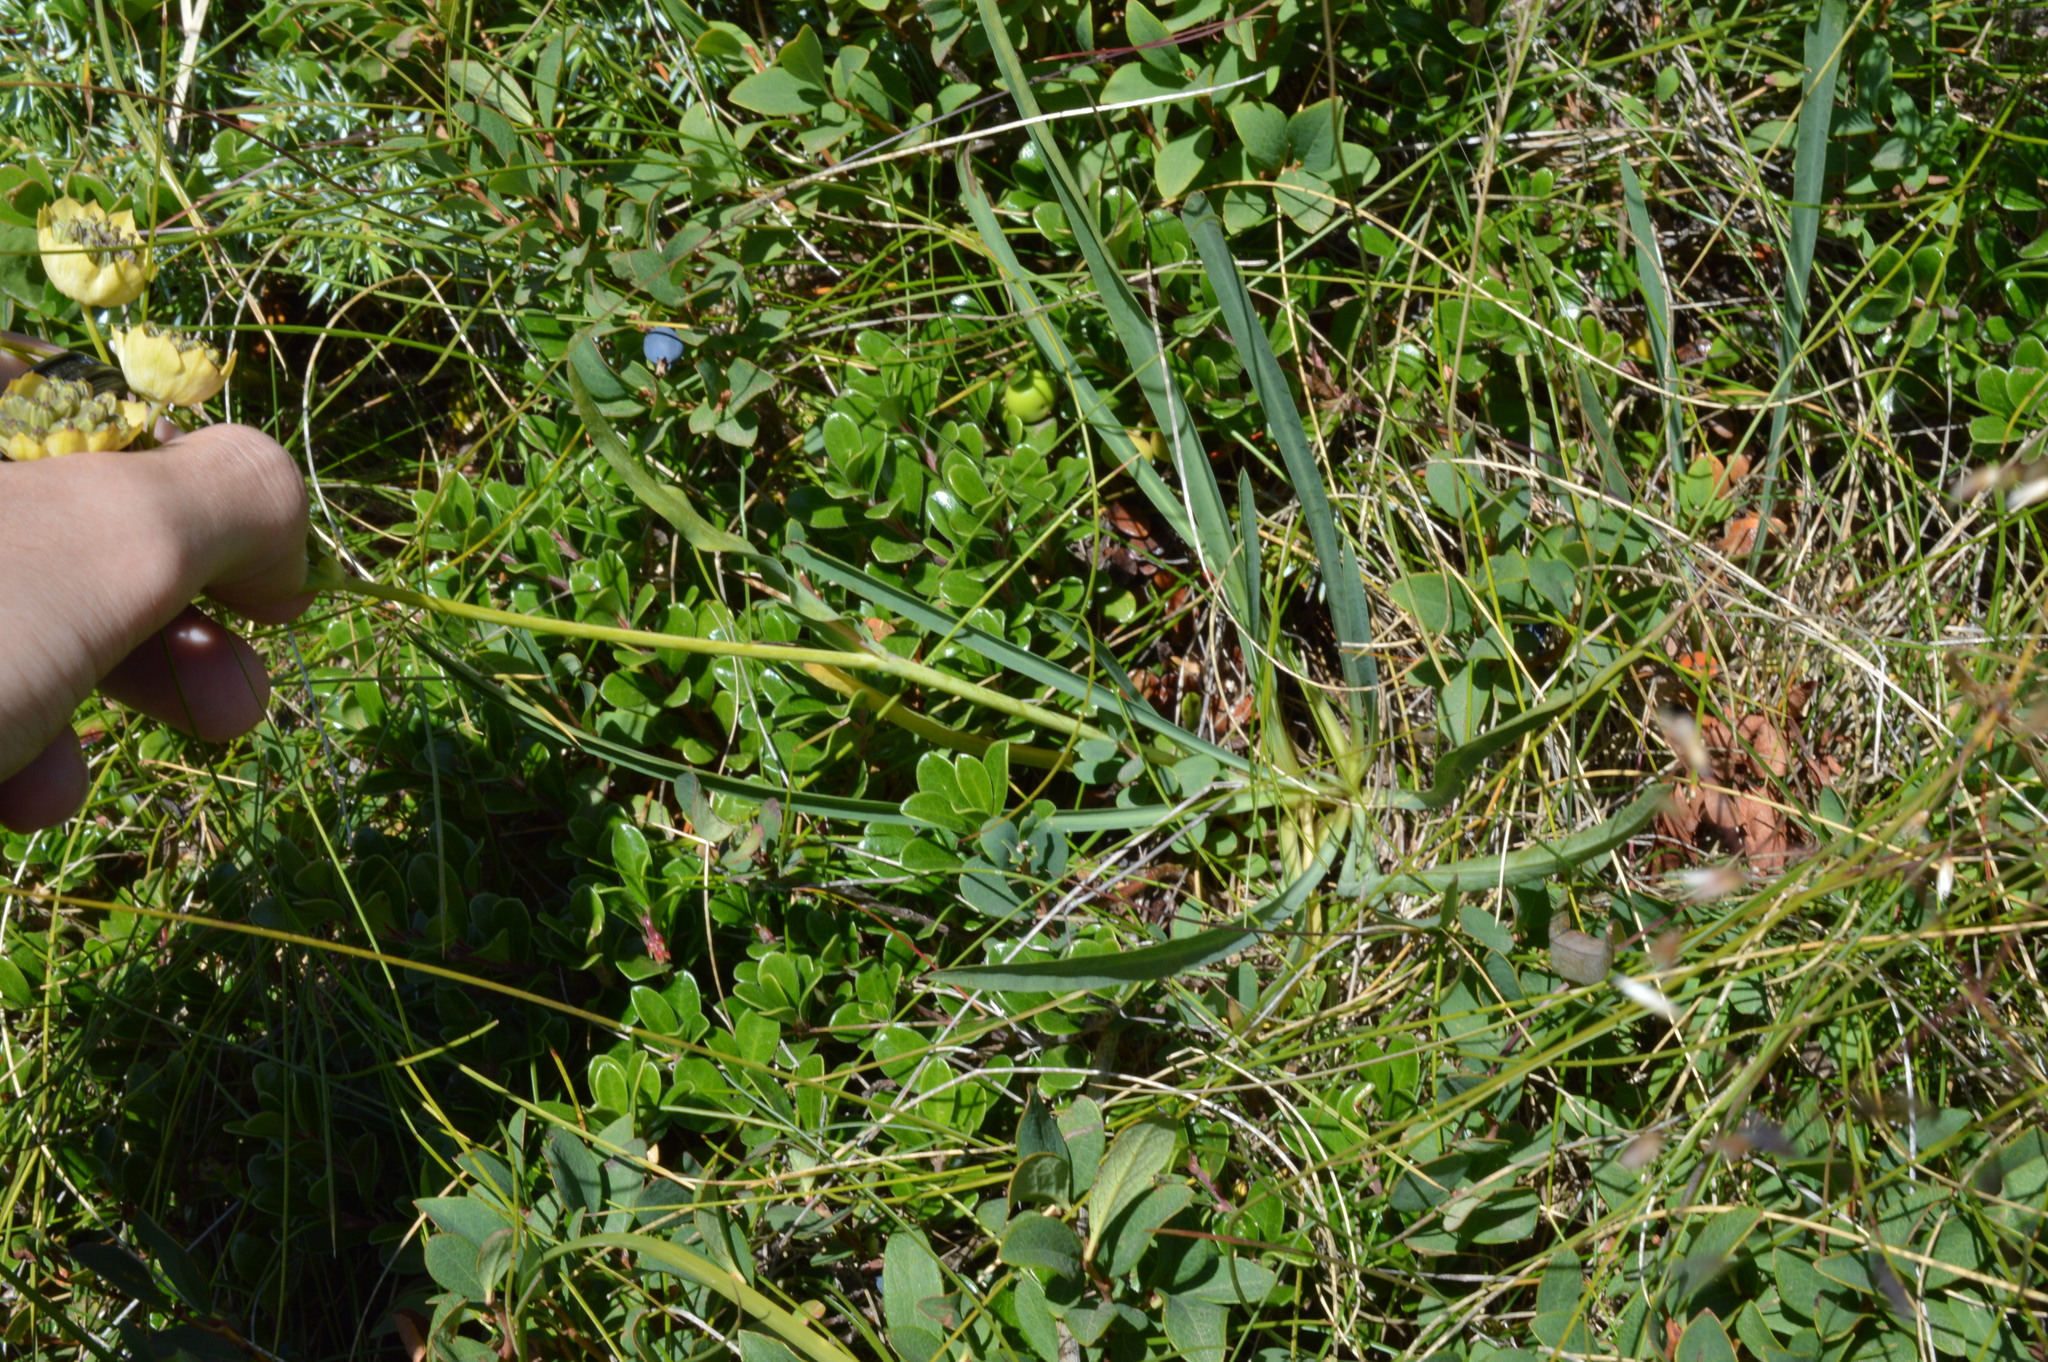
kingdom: Plantae
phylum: Tracheophyta
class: Magnoliopsida
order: Apiales
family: Apiaceae
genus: Bupleurum
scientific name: Bupleurum stellatum
